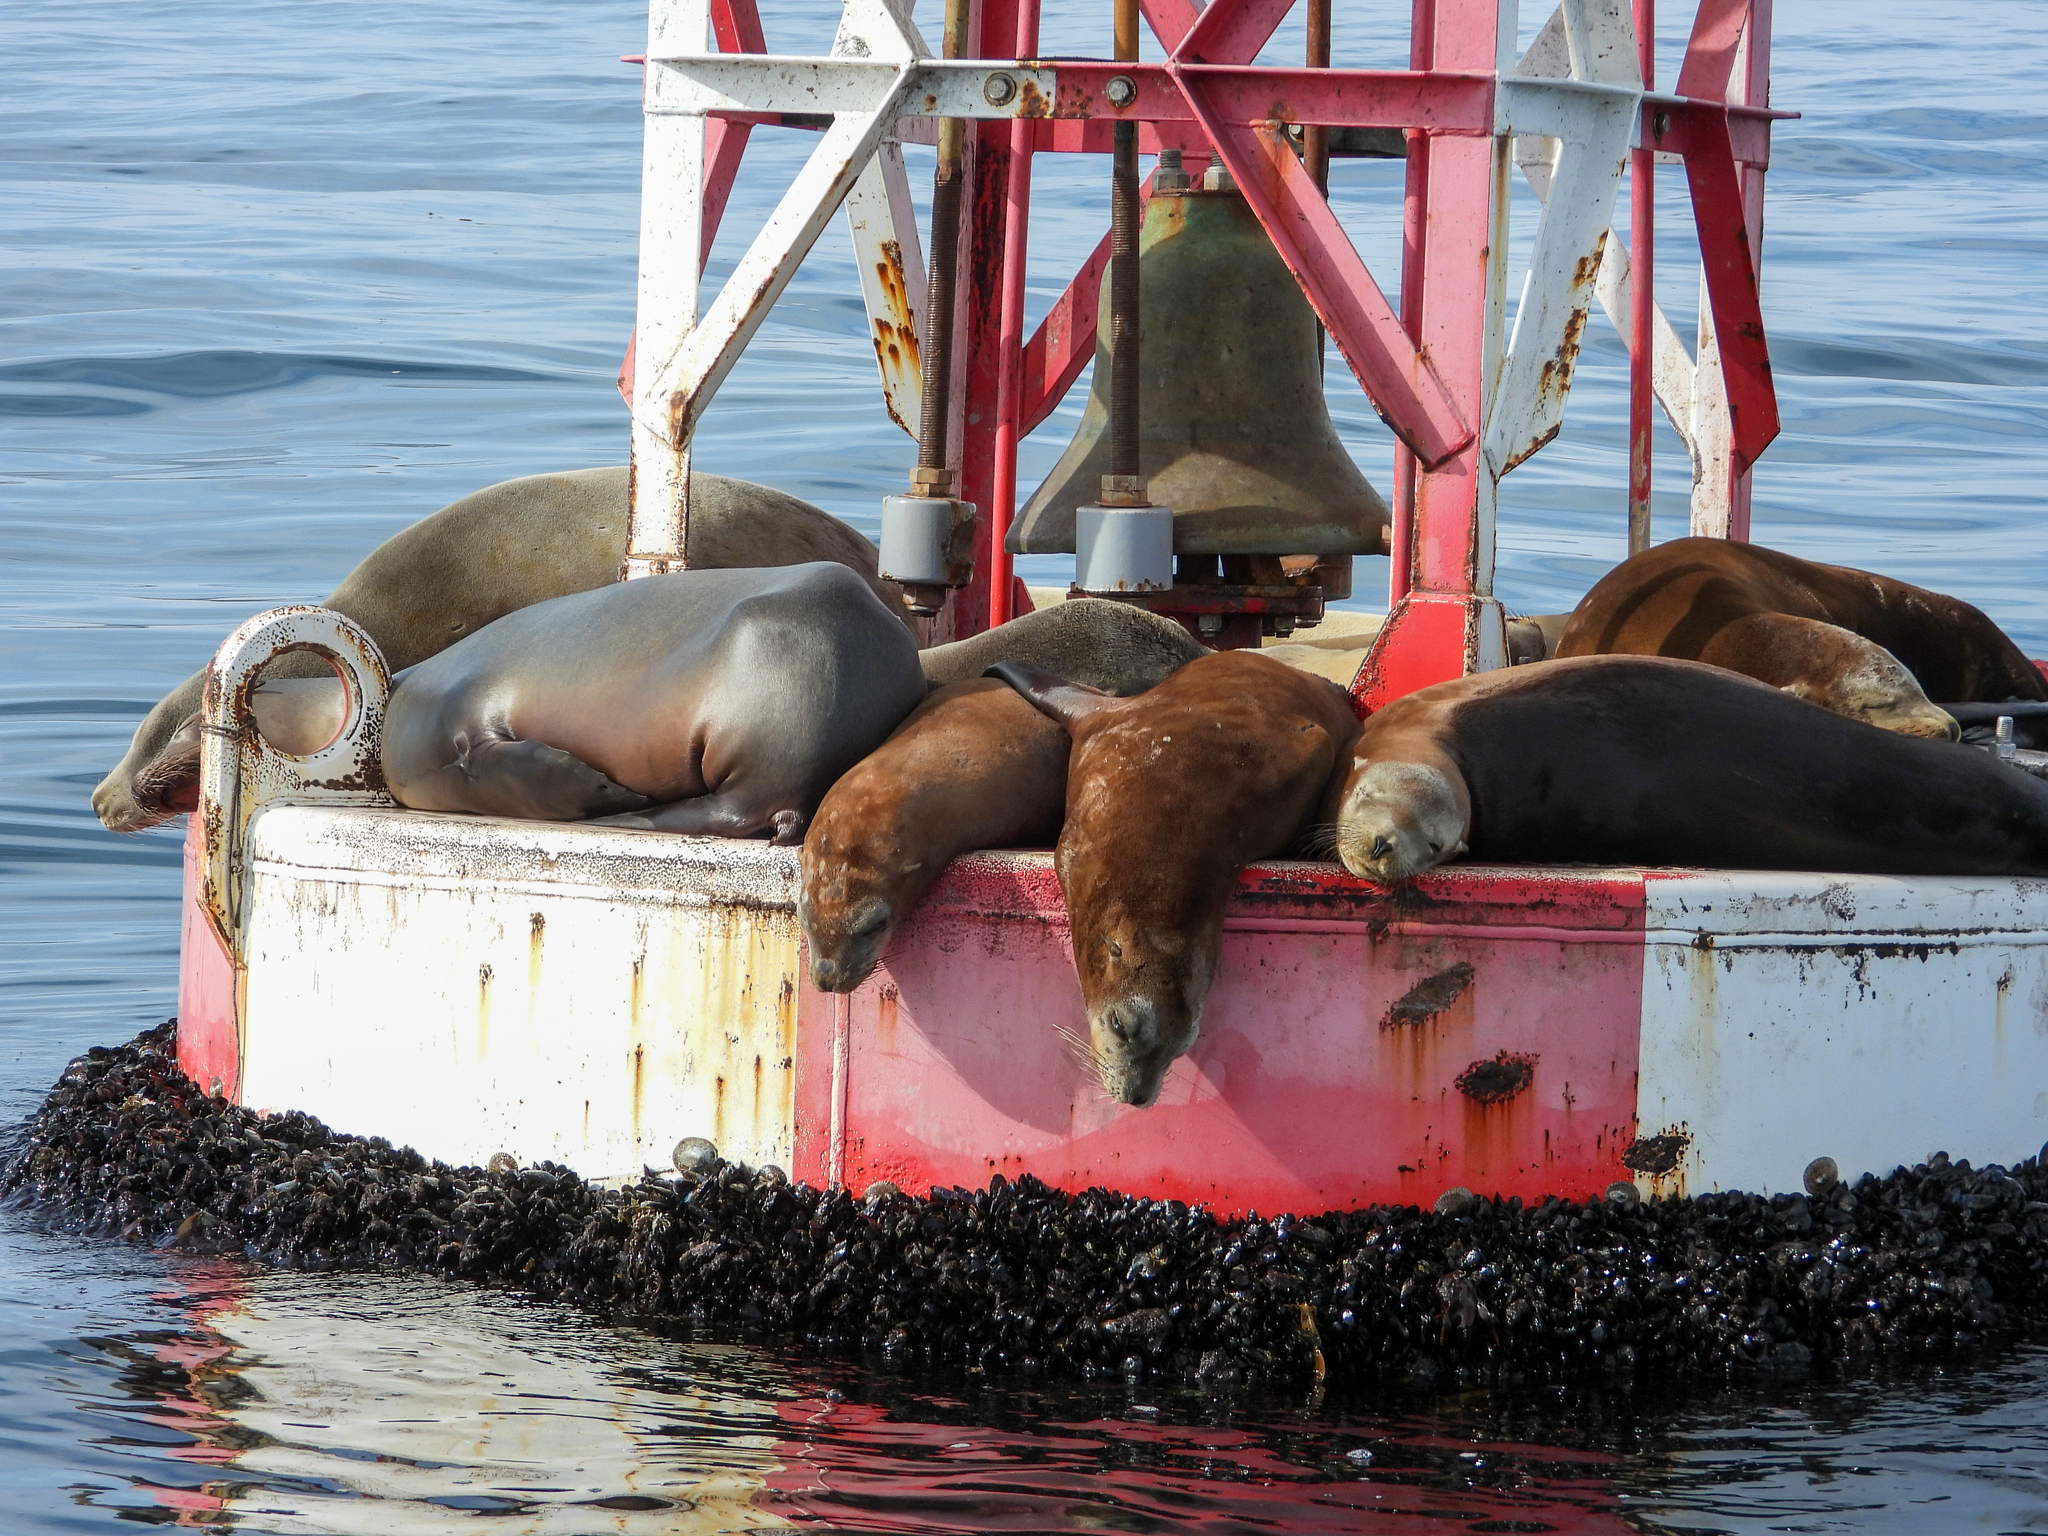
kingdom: Animalia
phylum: Chordata
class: Mammalia
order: Carnivora
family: Otariidae
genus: Zalophus
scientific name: Zalophus californianus
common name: California sea lion
